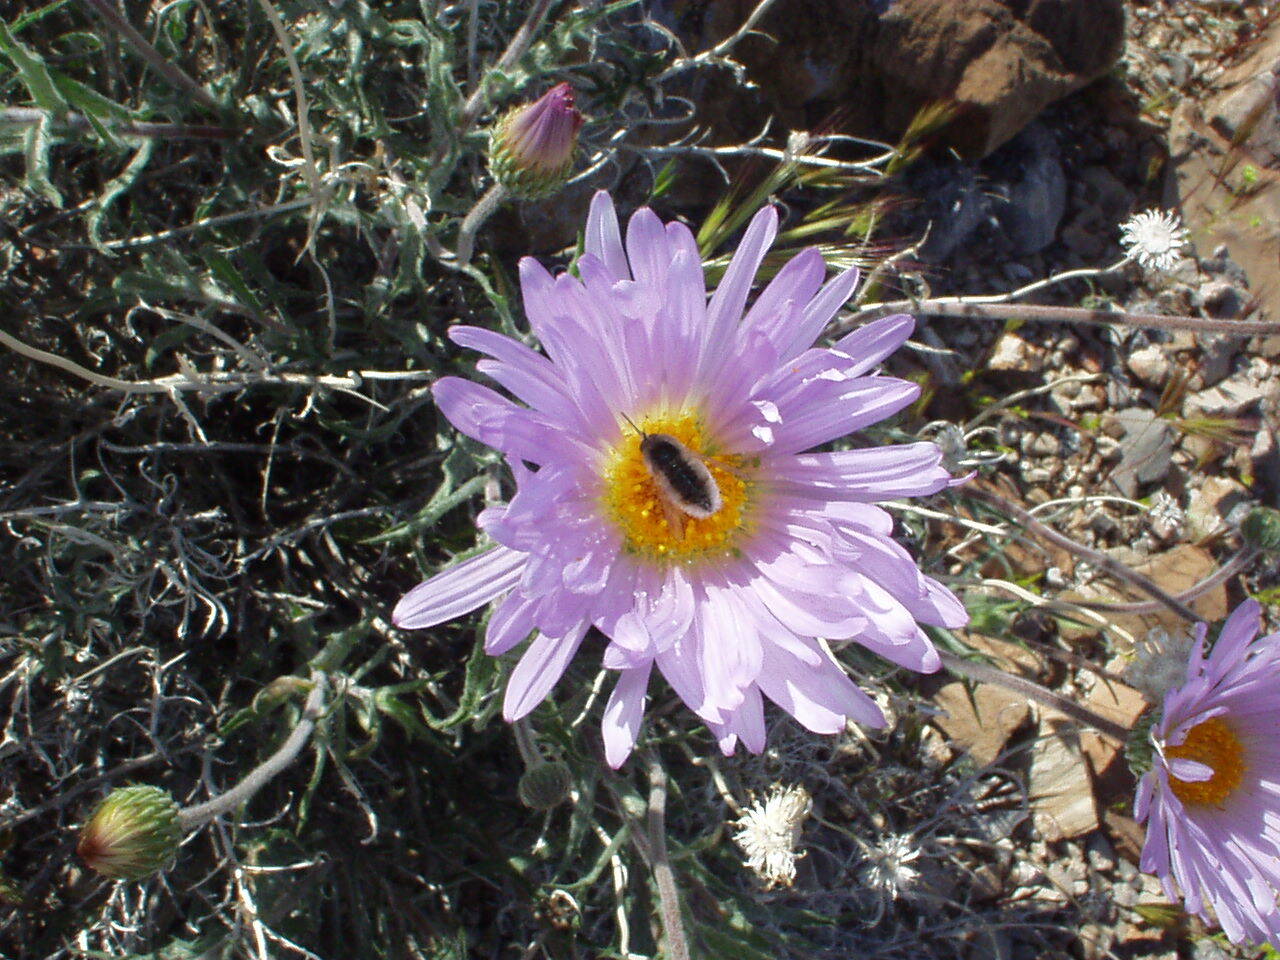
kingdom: Plantae
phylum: Tracheophyta
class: Magnoliopsida
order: Asterales
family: Asteraceae
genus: Xylorhiza
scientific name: Xylorhiza tortifolia
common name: Hurt-leaf woody-aster
